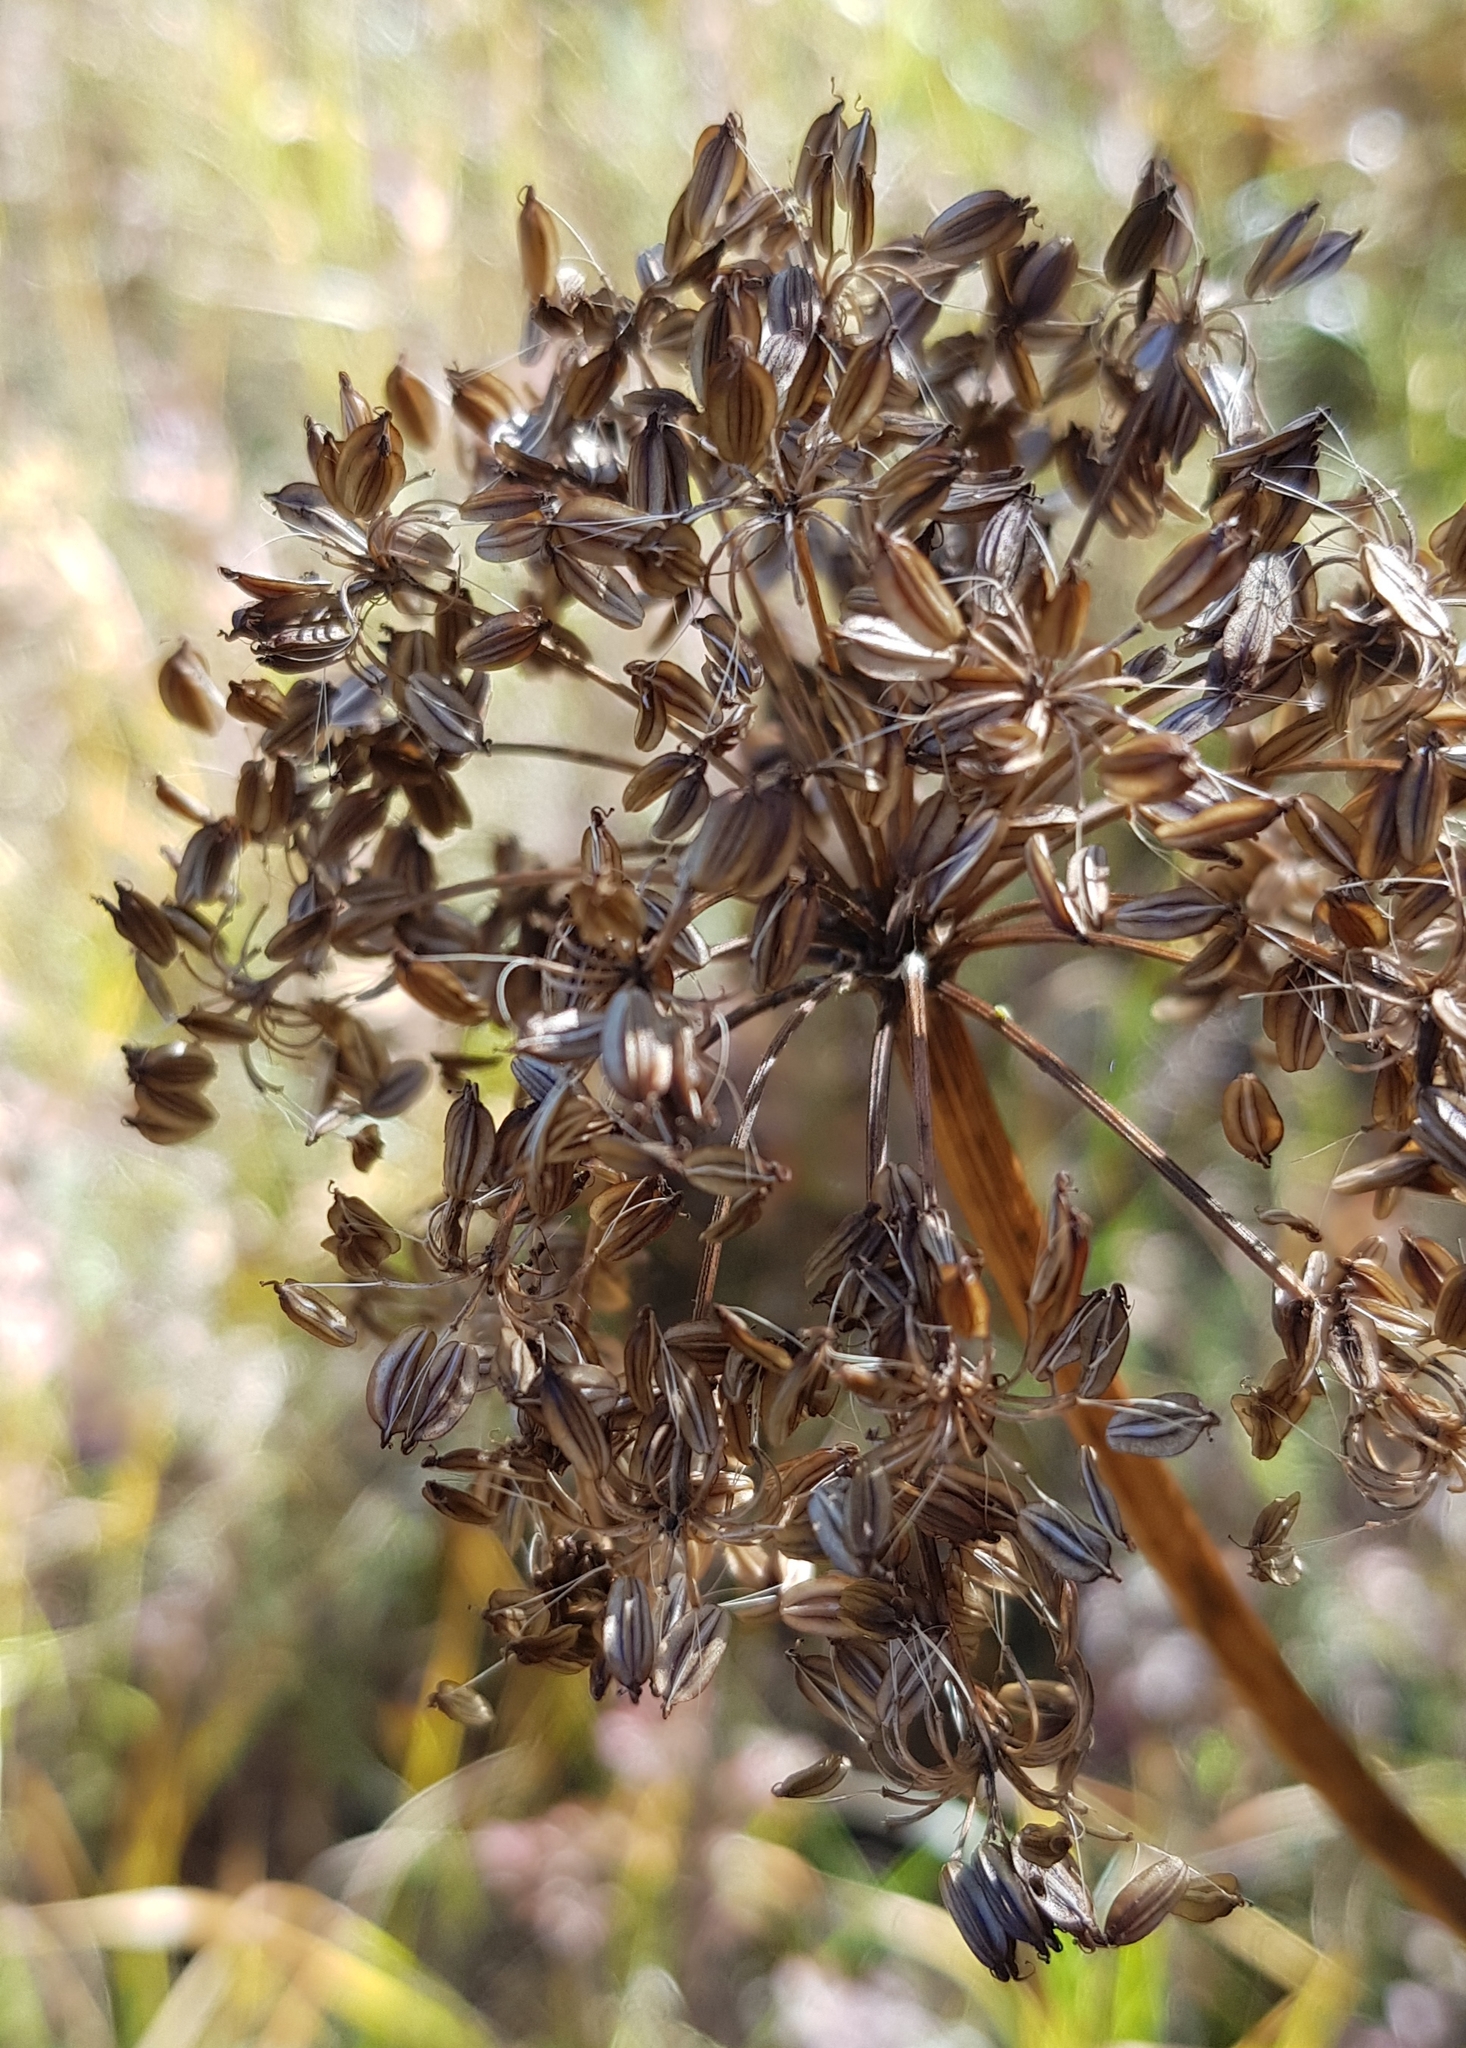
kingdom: Plantae
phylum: Tracheophyta
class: Magnoliopsida
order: Apiales
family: Apiaceae
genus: Cenolophium
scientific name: Cenolophium fischeri
